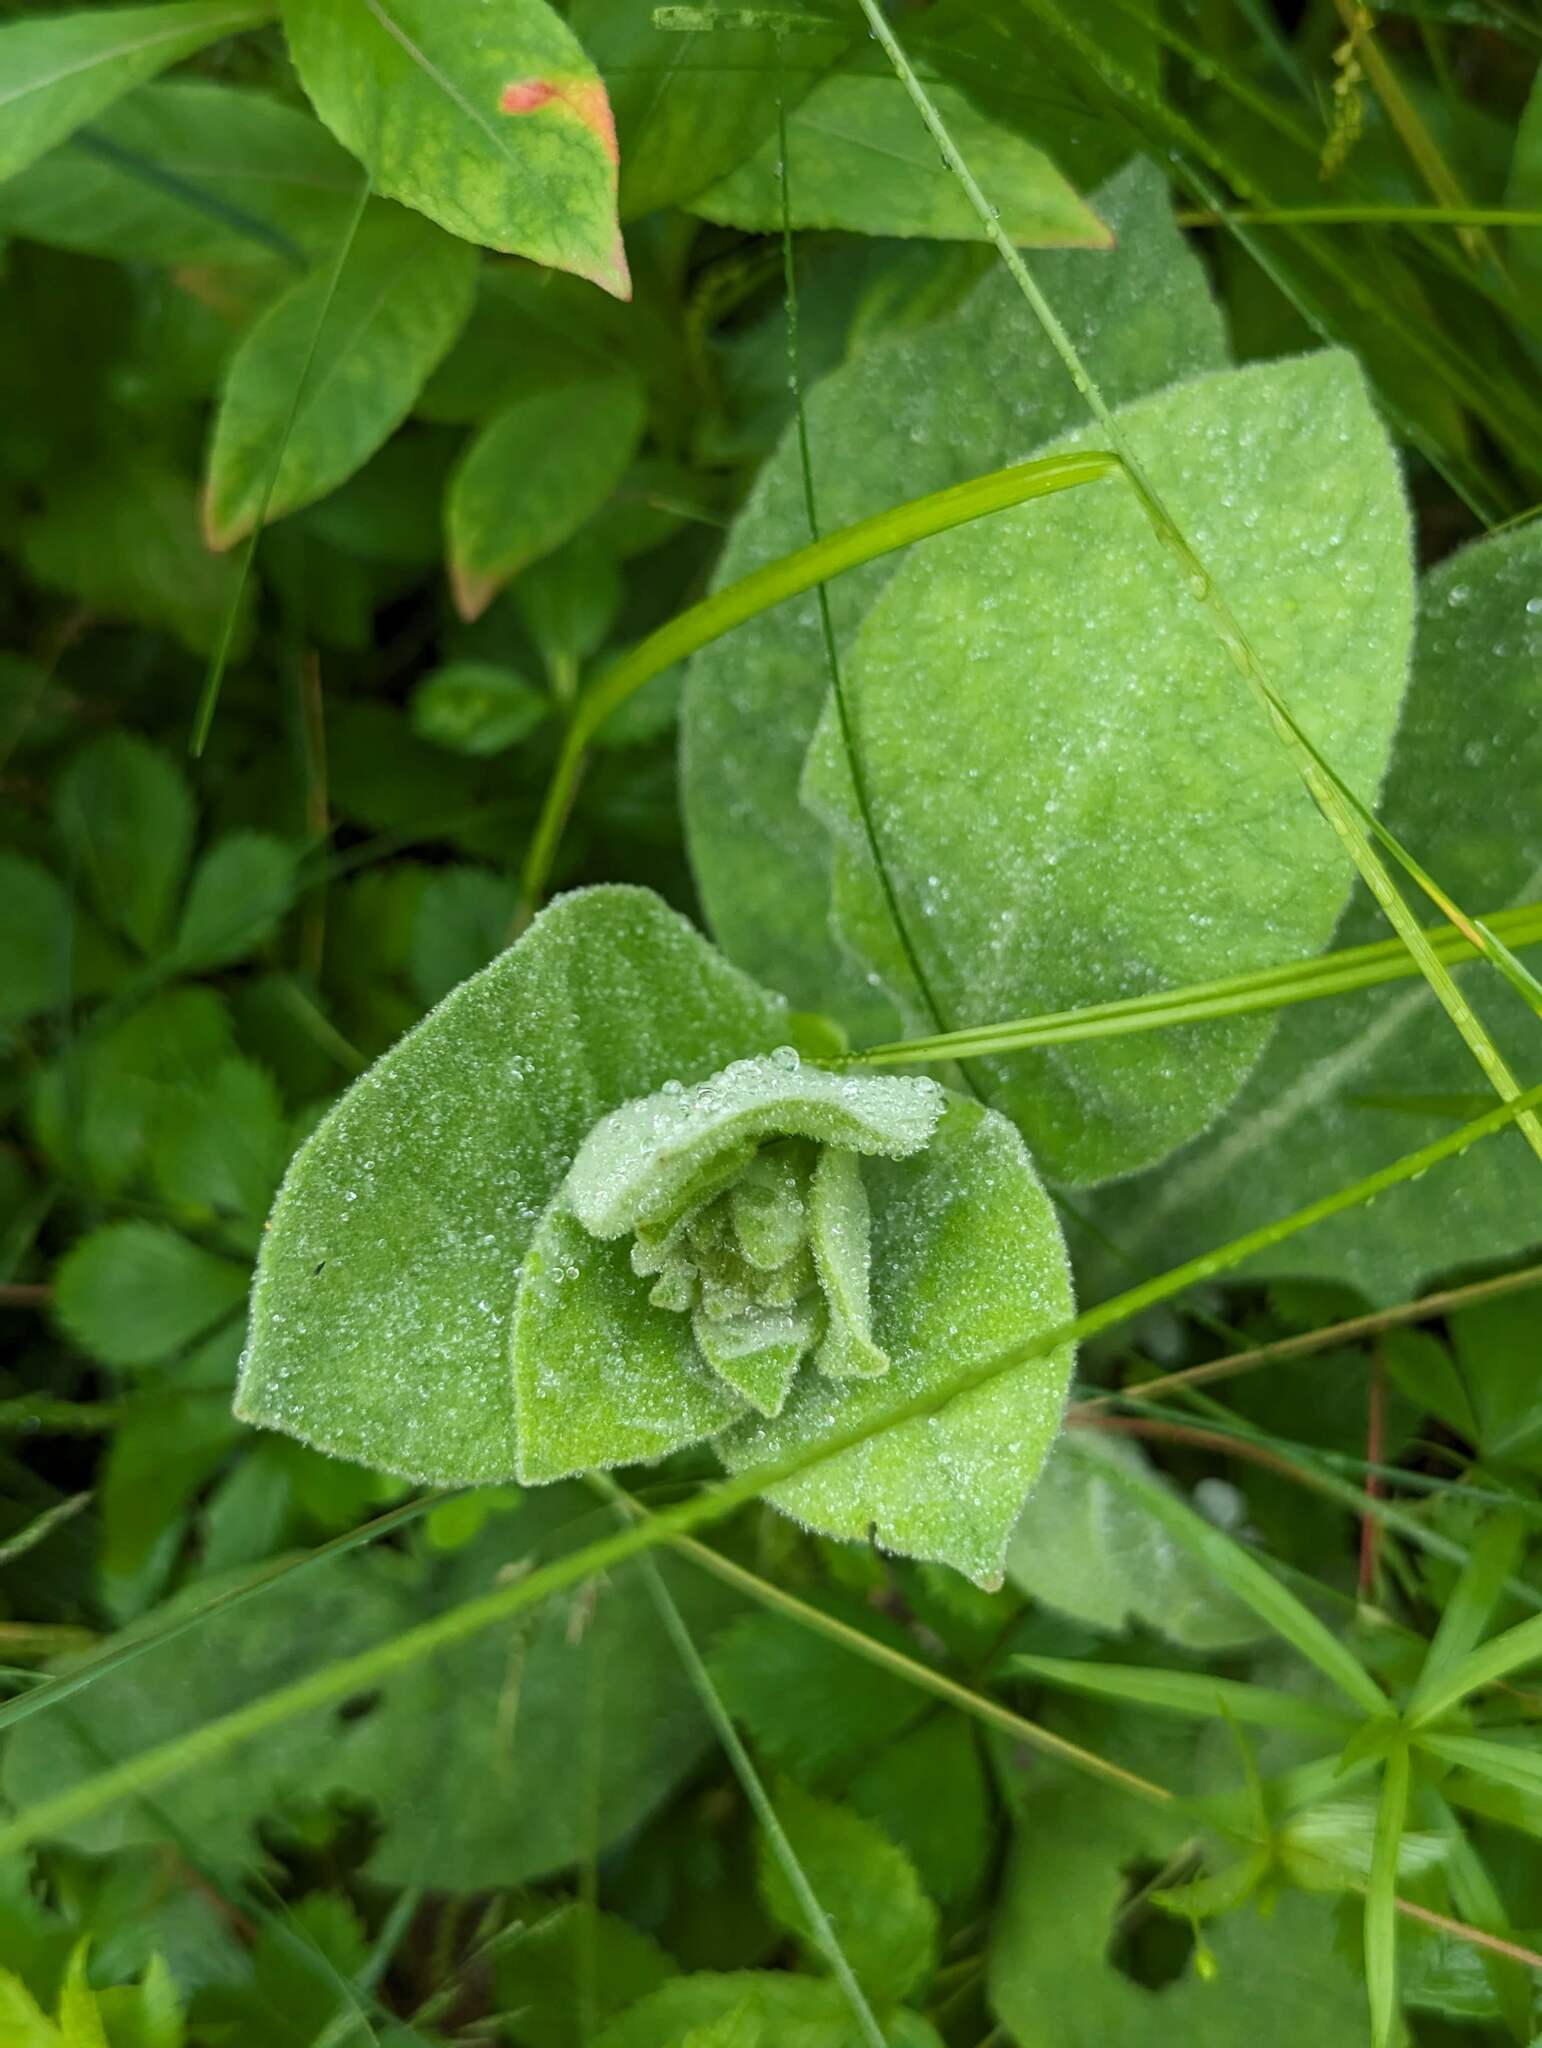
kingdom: Plantae
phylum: Tracheophyta
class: Magnoliopsida
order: Lamiales
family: Scrophulariaceae
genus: Verbascum
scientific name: Verbascum thapsus
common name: Common mullein
